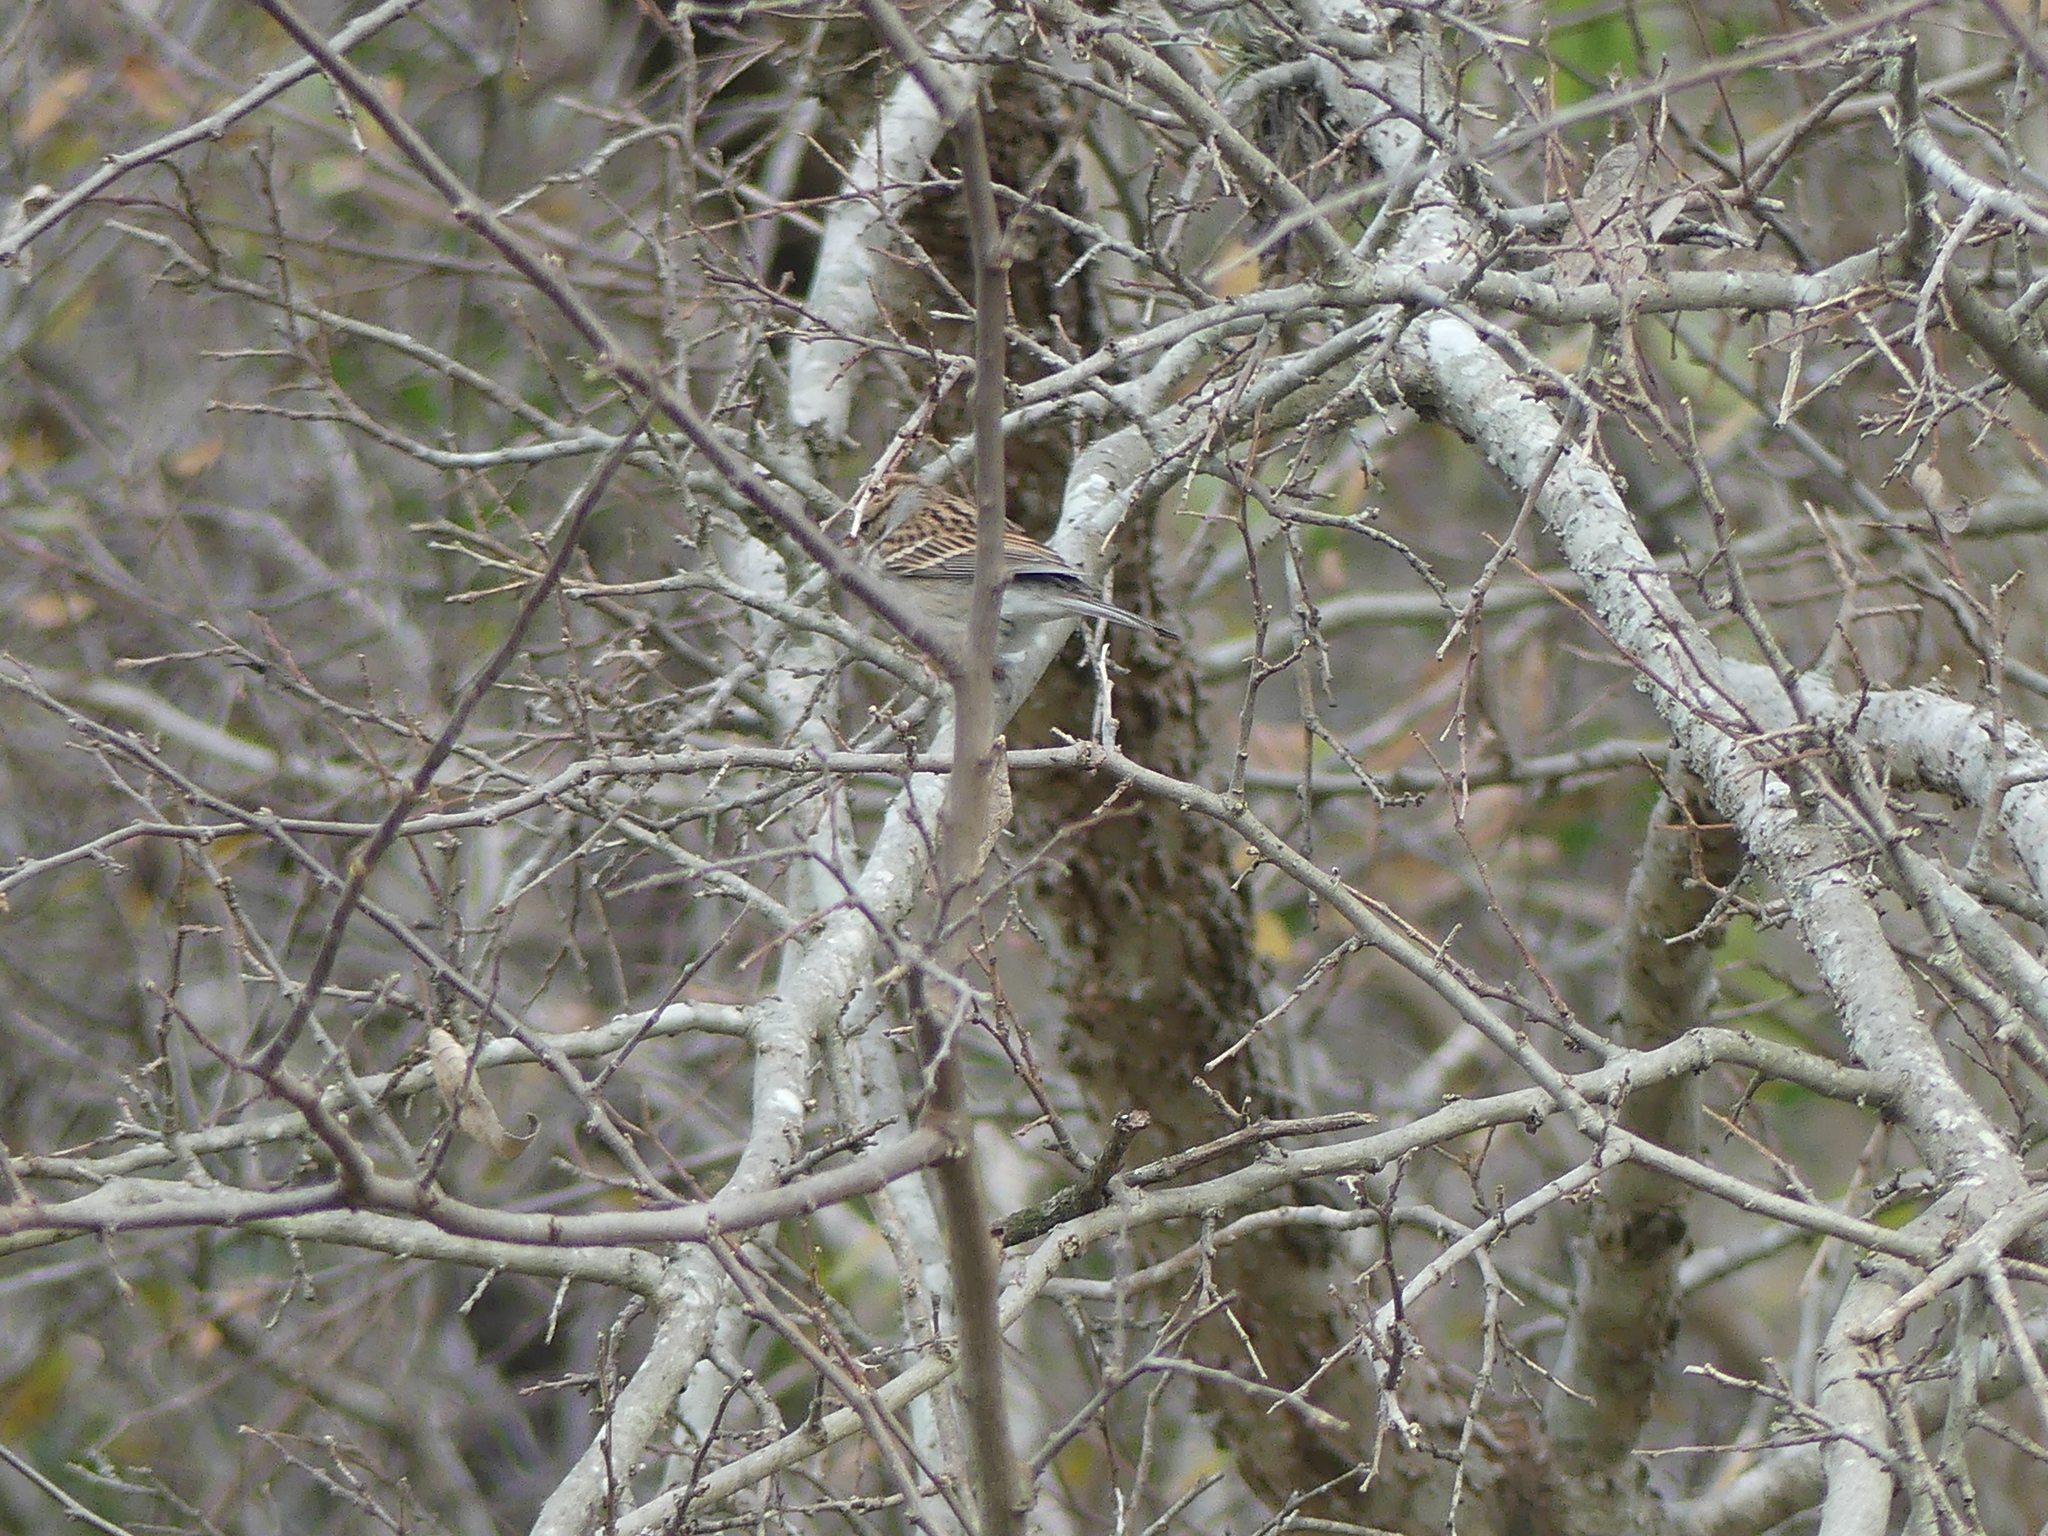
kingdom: Animalia
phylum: Chordata
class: Aves
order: Passeriformes
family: Passerellidae
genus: Spizella
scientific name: Spizella passerina
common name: Chipping sparrow
